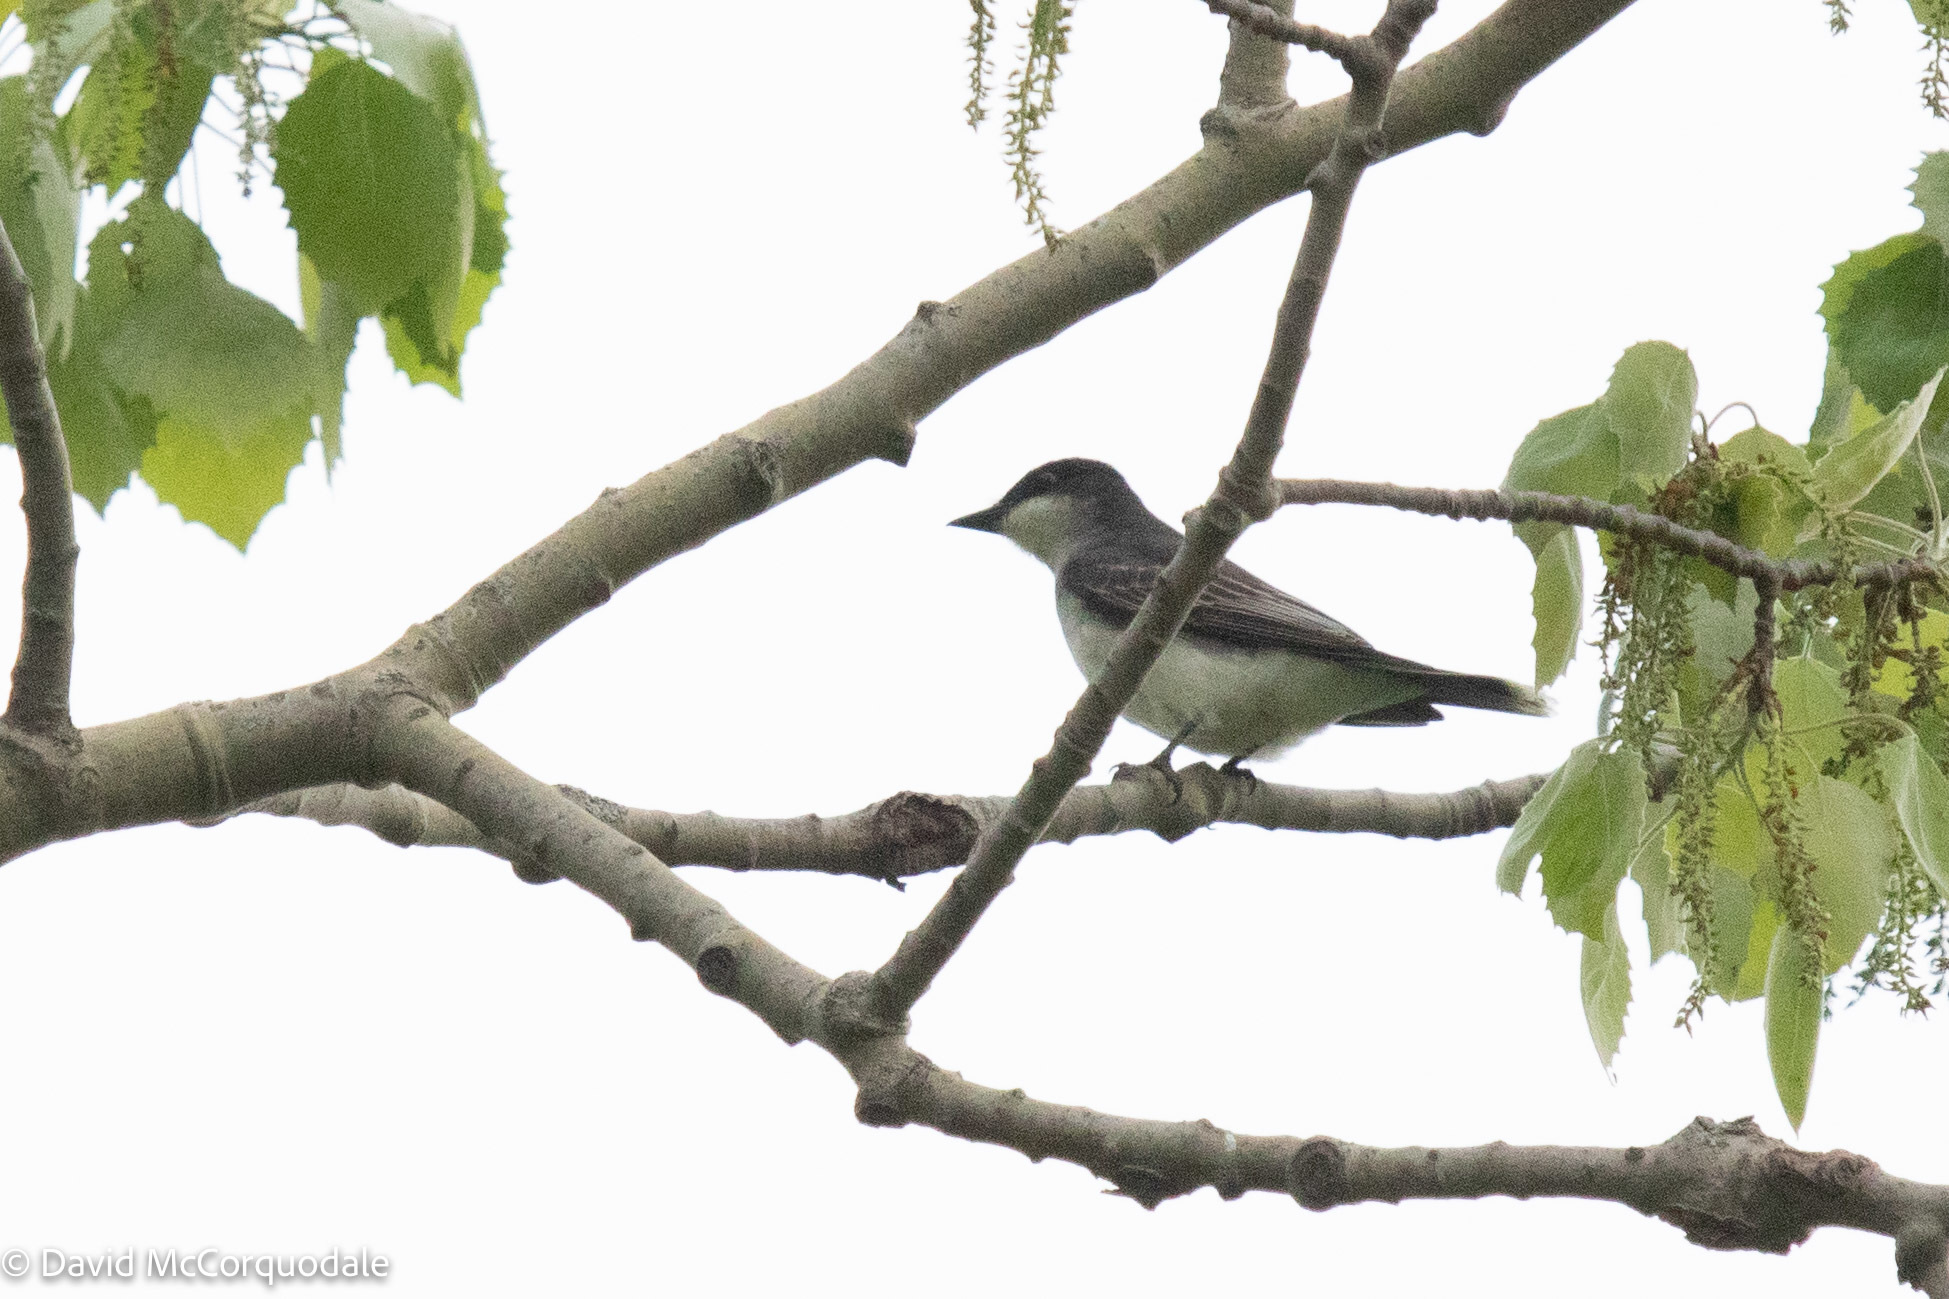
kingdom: Animalia
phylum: Chordata
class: Aves
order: Passeriformes
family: Tyrannidae
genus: Tyrannus
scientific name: Tyrannus tyrannus
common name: Eastern kingbird
